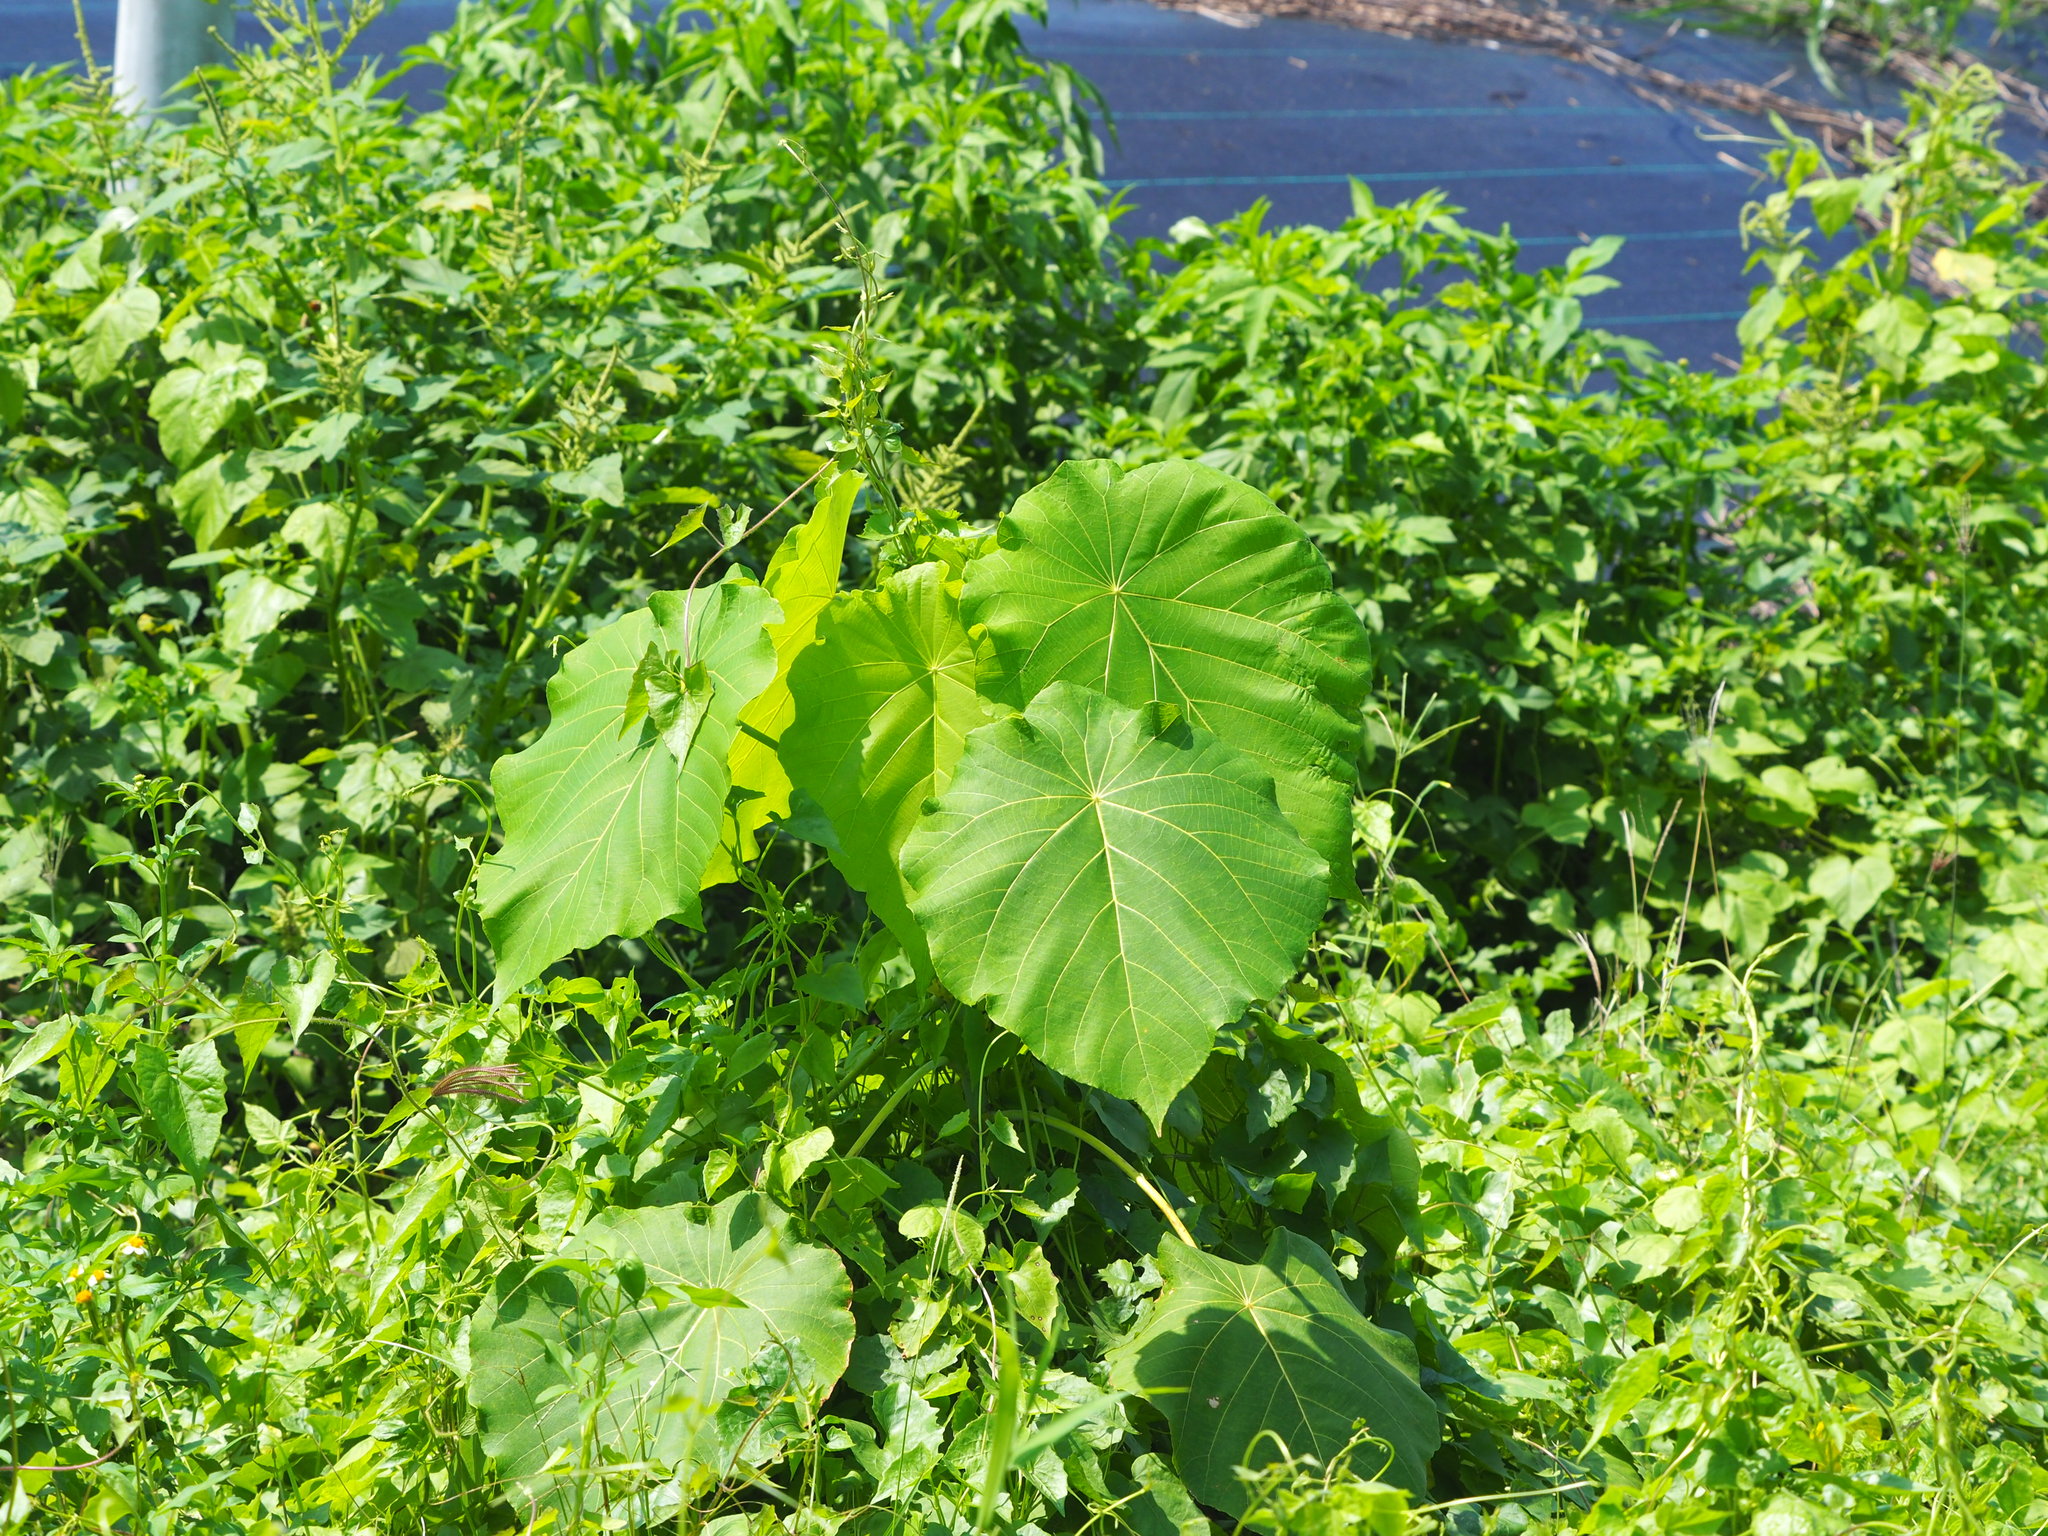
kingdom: Plantae
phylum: Tracheophyta
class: Magnoliopsida
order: Malpighiales
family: Euphorbiaceae
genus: Macaranga
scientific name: Macaranga tanarius
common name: Parasol leaf tree
